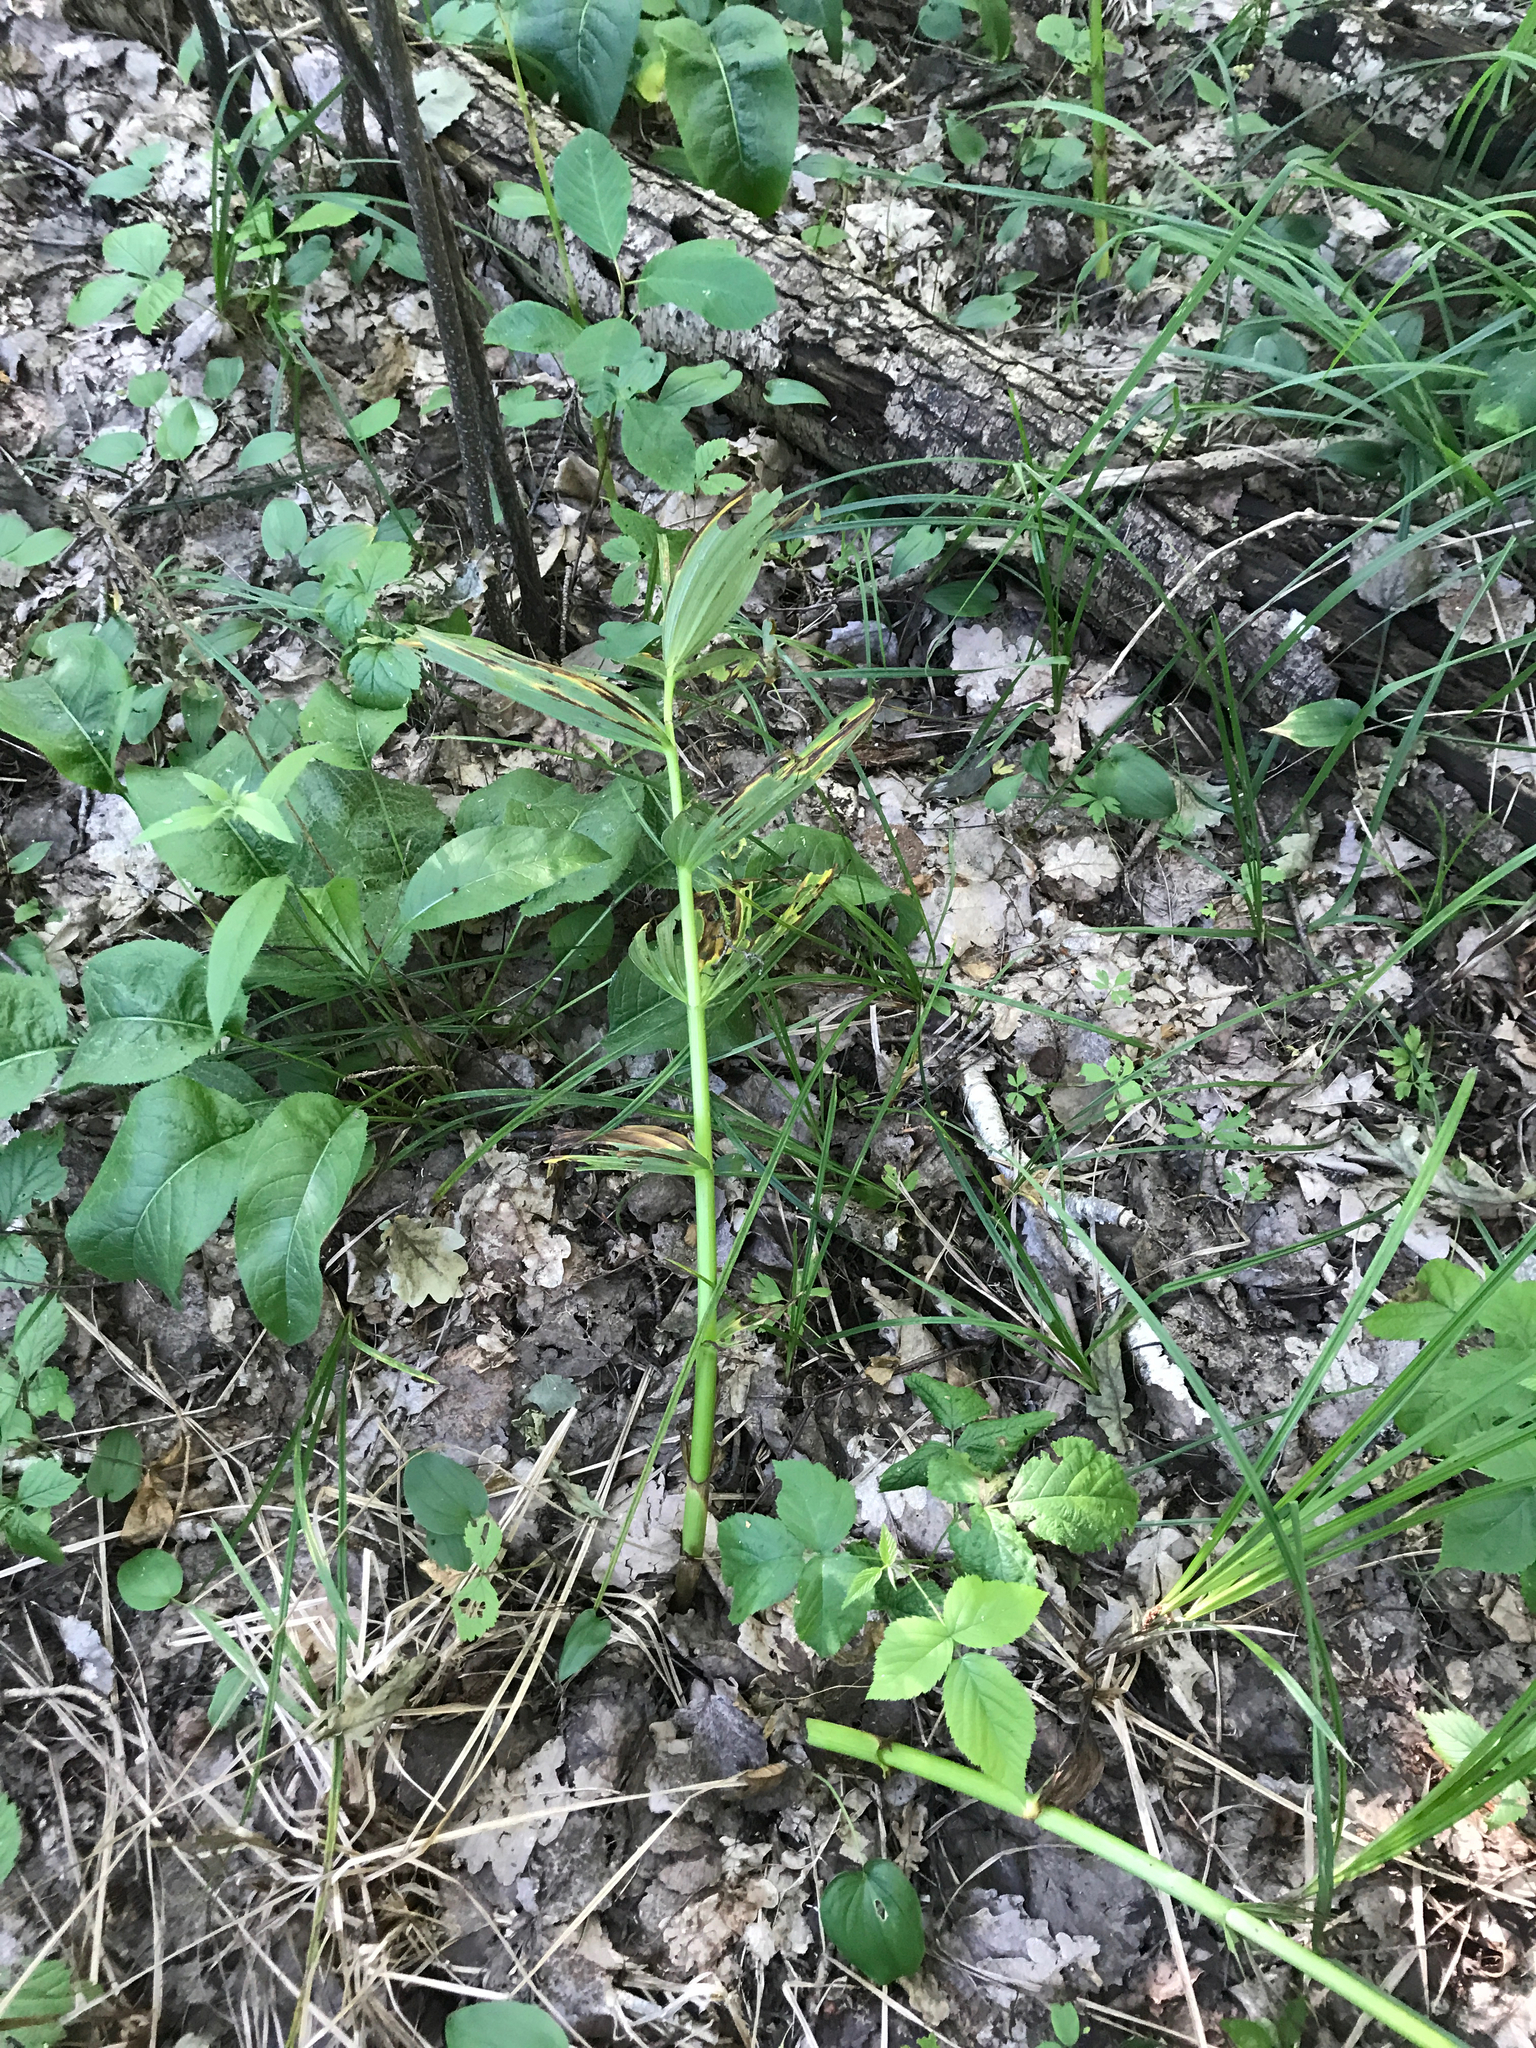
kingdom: Plantae
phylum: Tracheophyta
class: Liliopsida
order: Liliales
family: Melanthiaceae
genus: Veratrum
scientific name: Veratrum lobelianum
